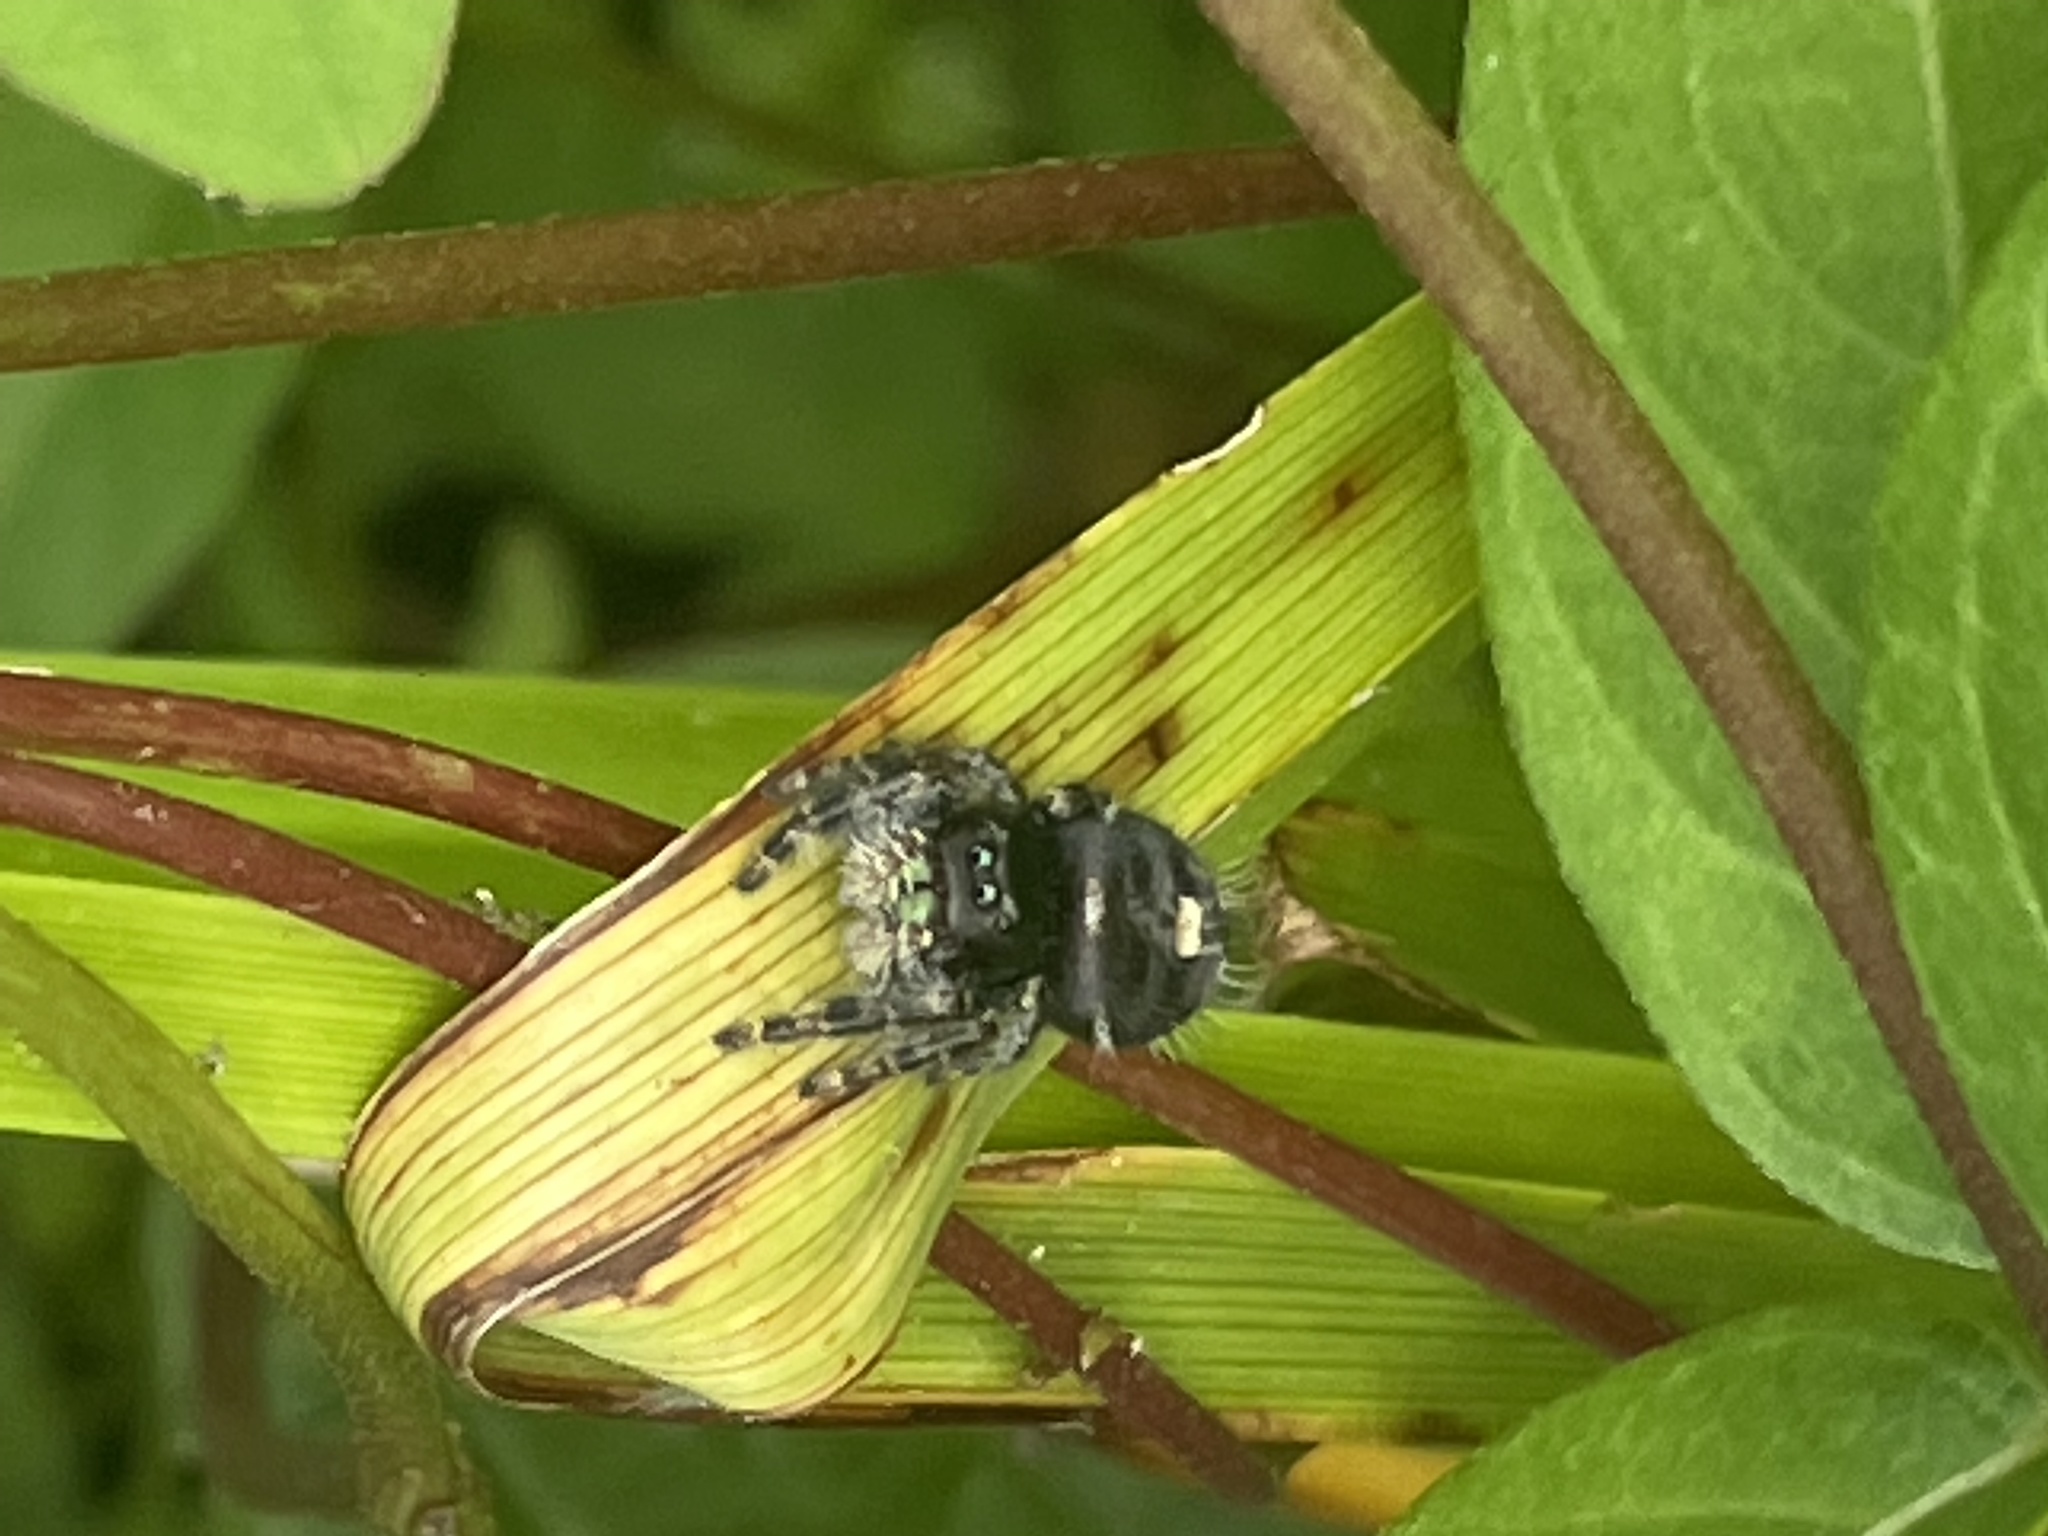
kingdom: Animalia
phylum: Arthropoda
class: Arachnida
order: Araneae
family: Salticidae
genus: Phidippus
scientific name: Phidippus audax
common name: Bold jumper
